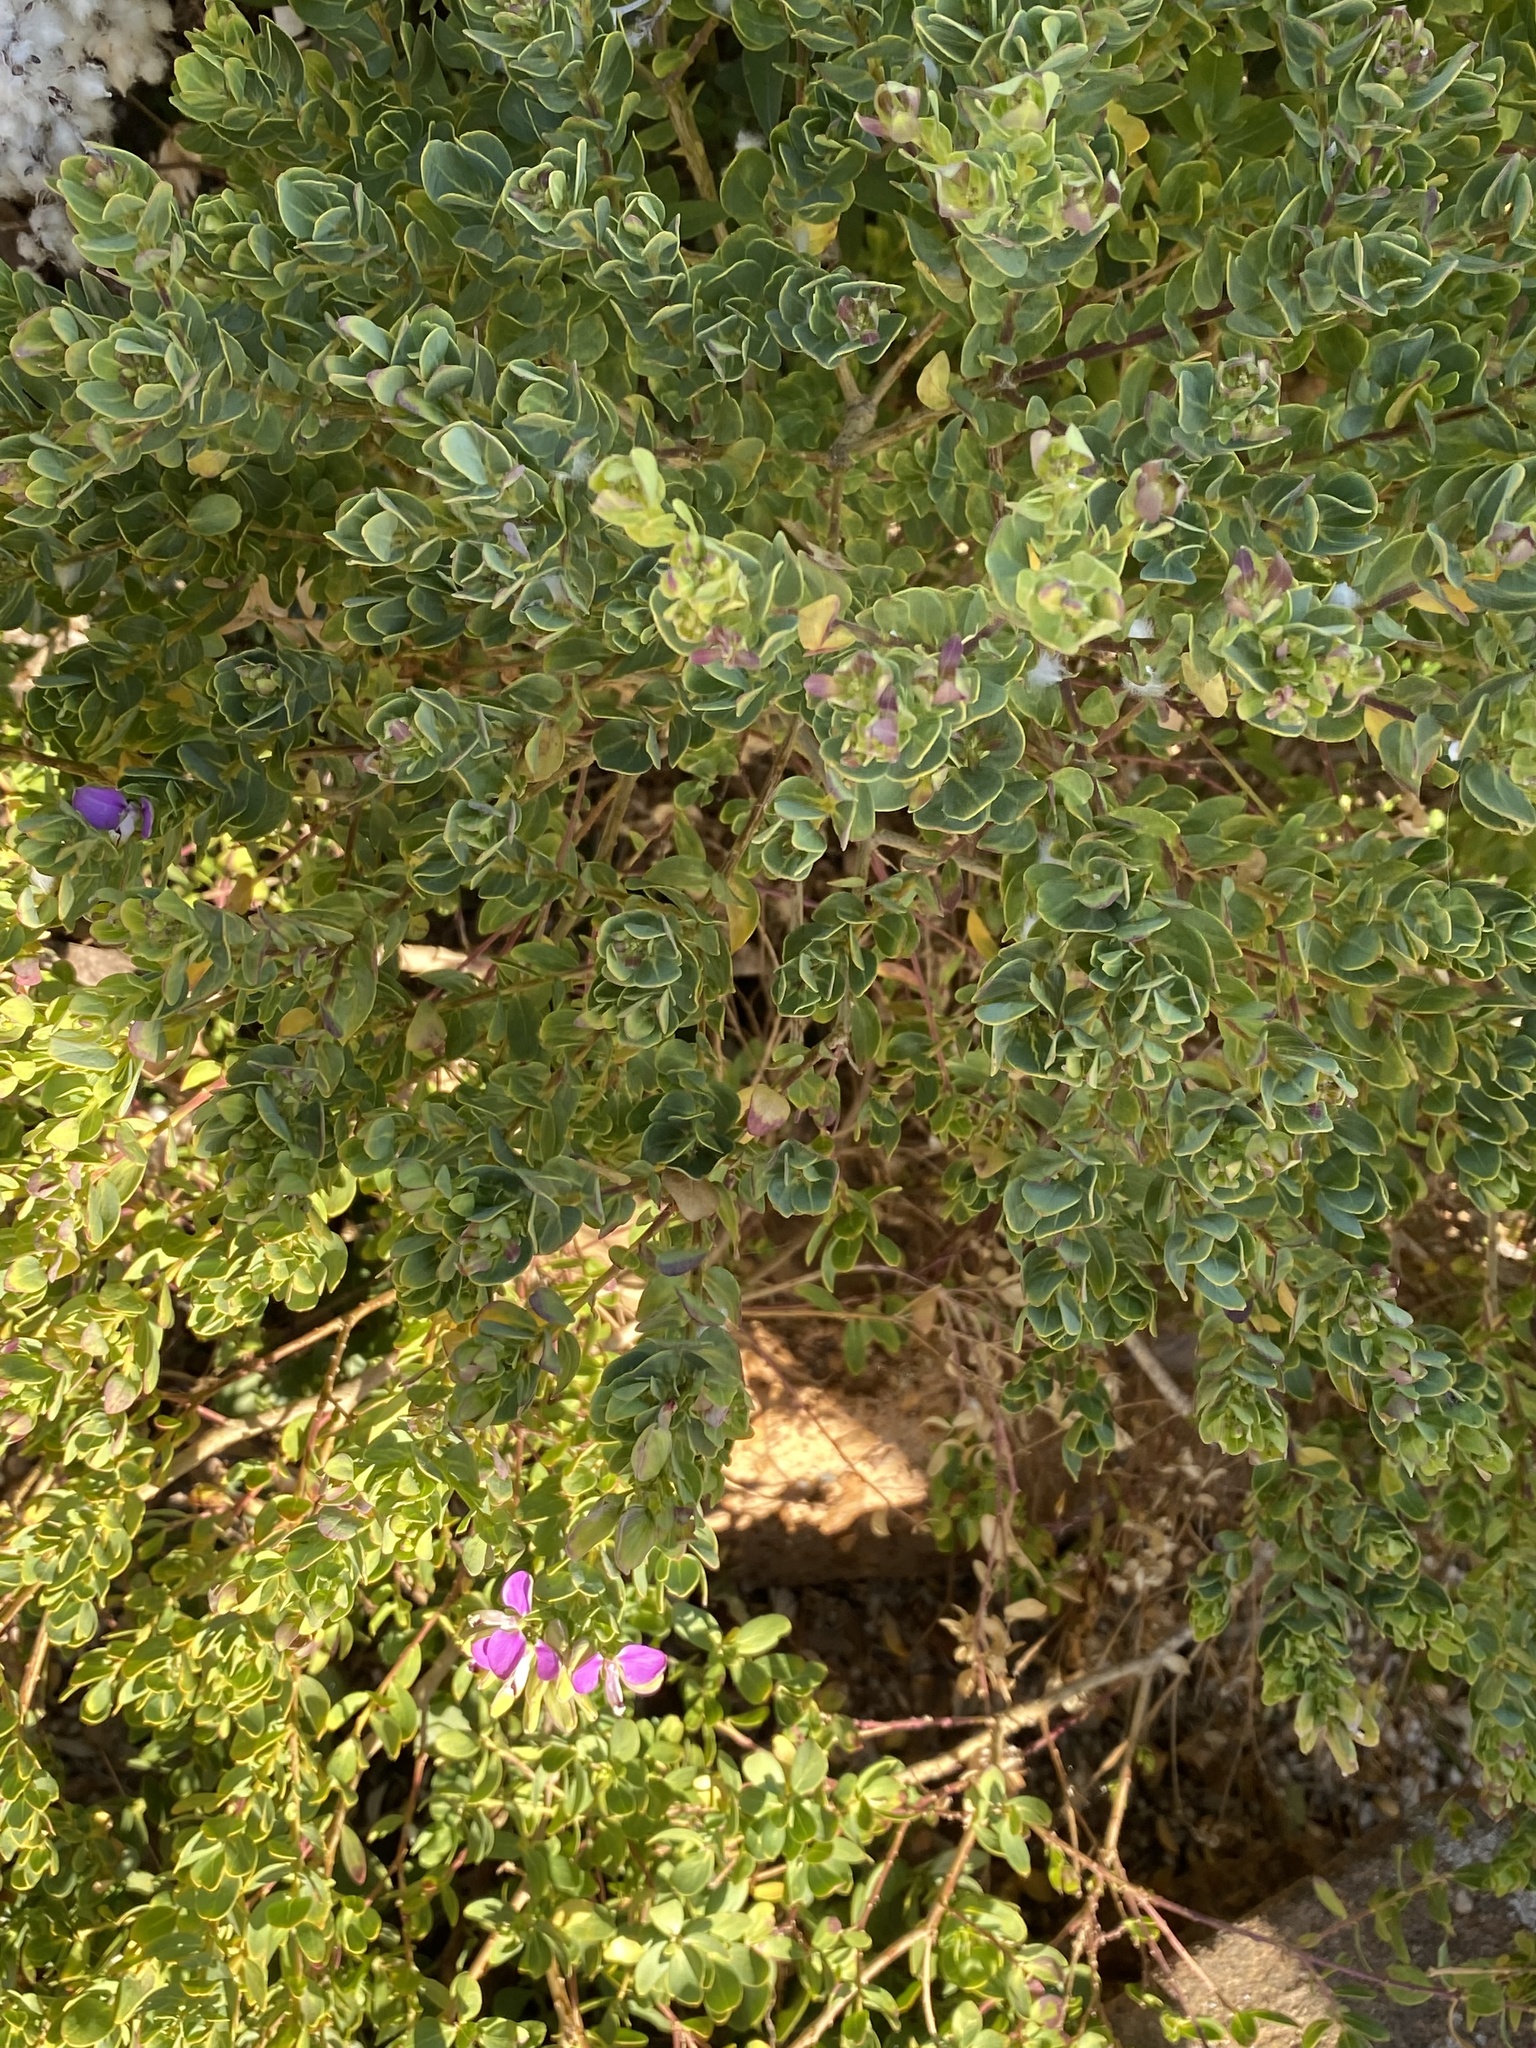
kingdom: Plantae
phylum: Tracheophyta
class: Magnoliopsida
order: Fabales
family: Polygalaceae
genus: Polygala
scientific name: Polygala myrtifolia
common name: Myrtle-leaf milkwort
